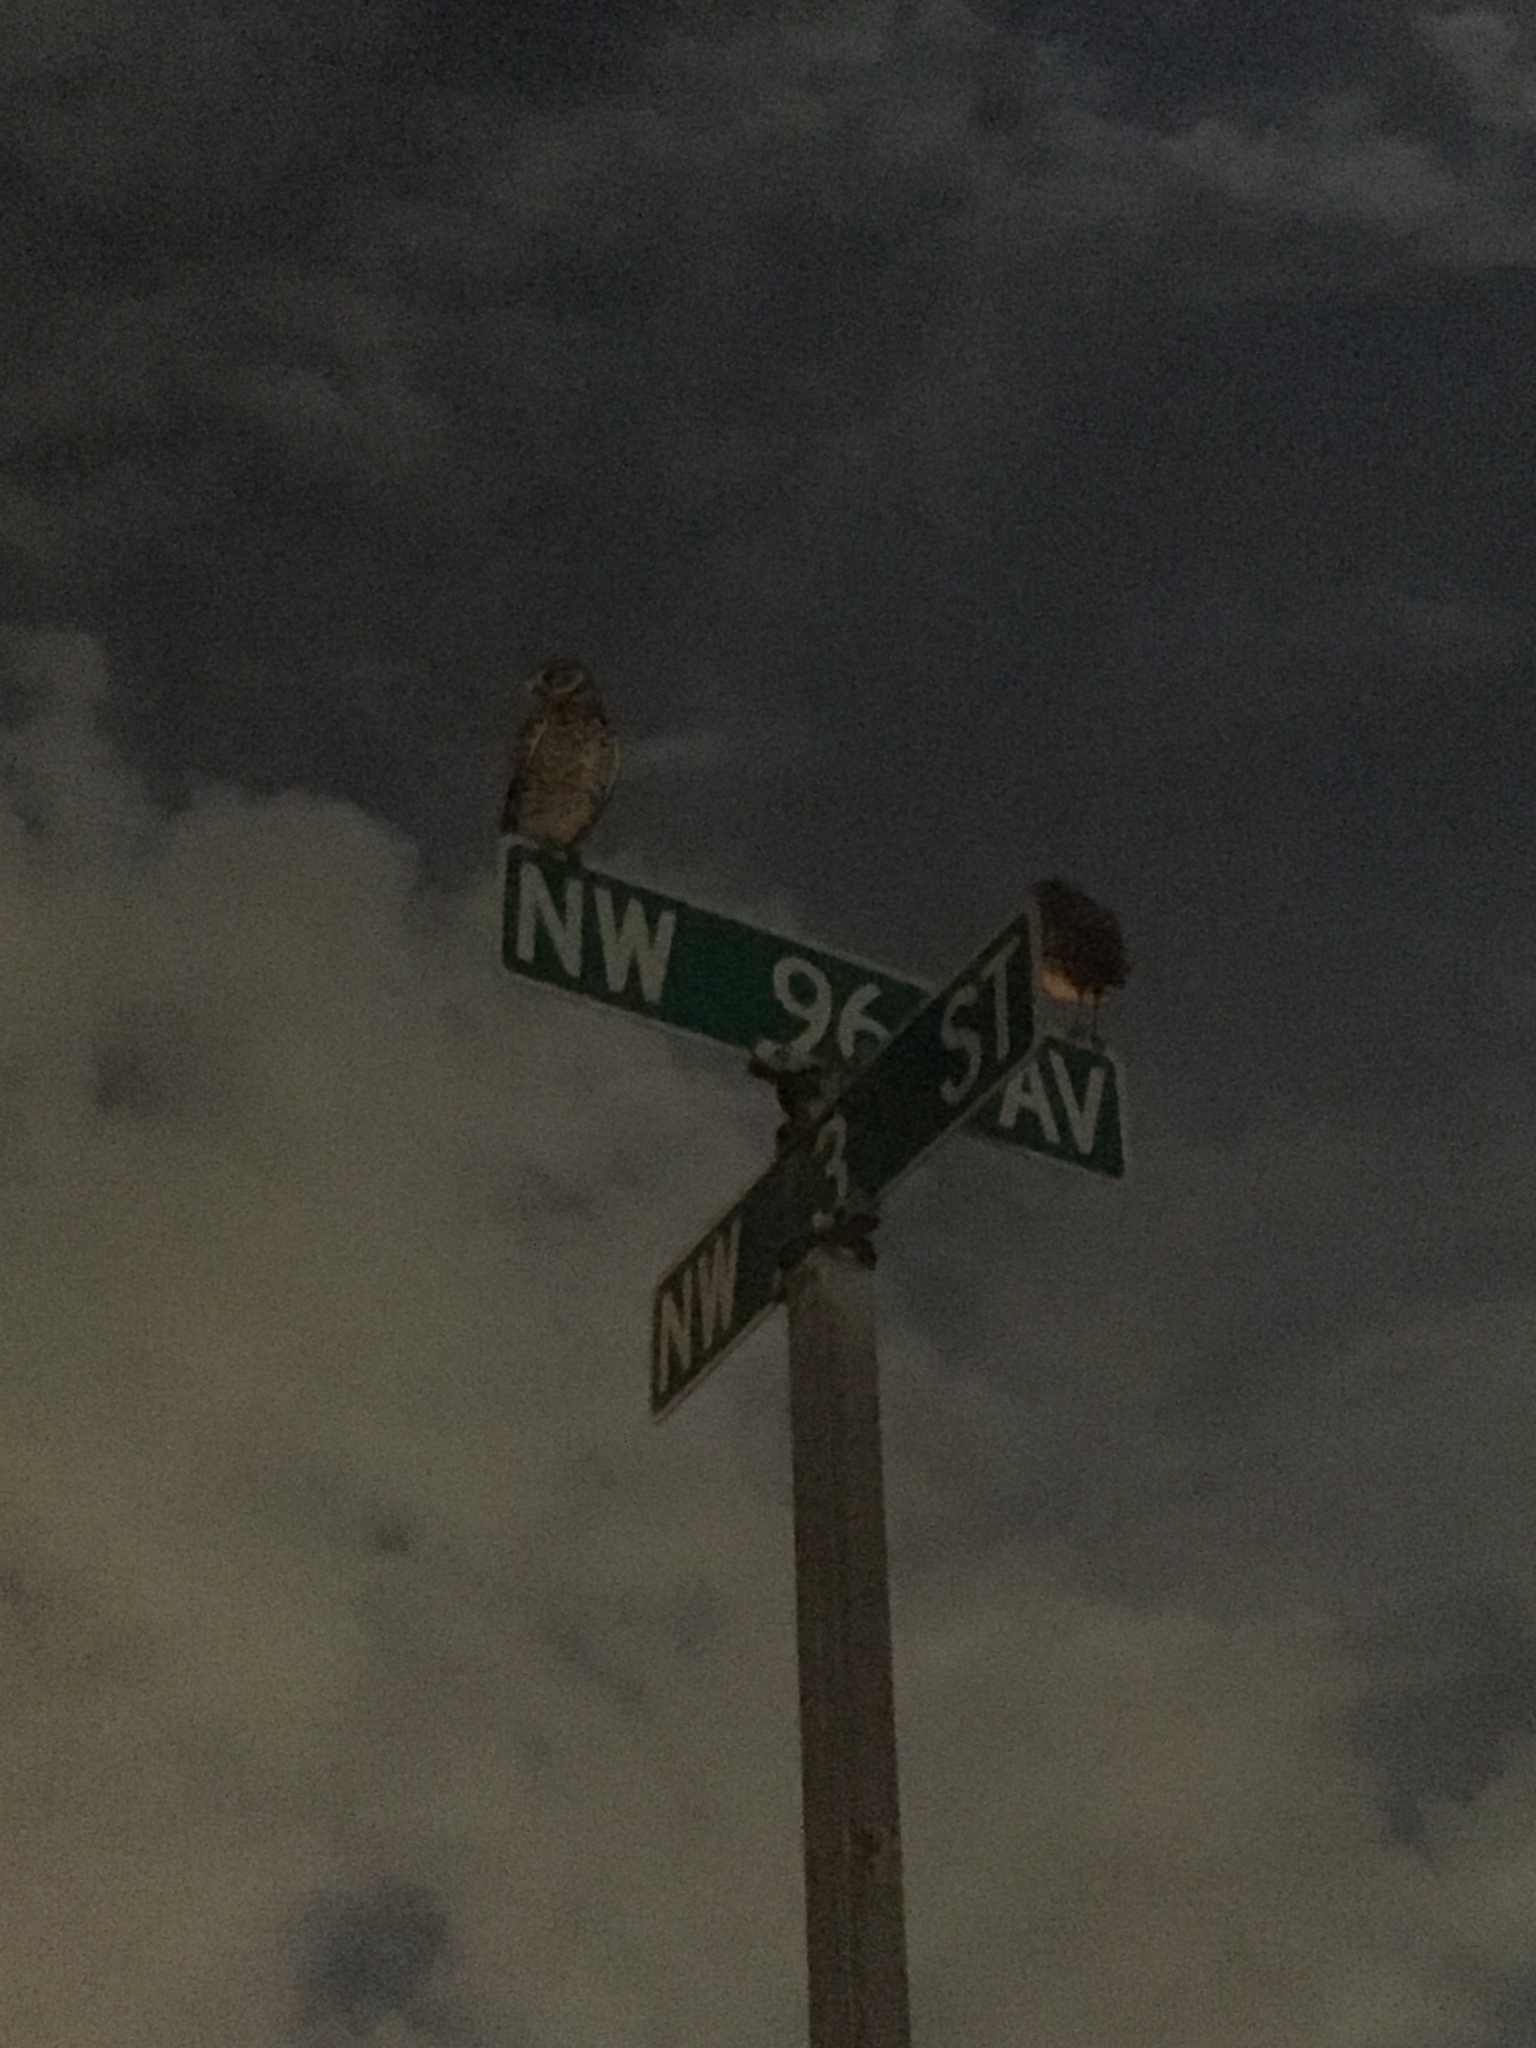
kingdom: Animalia
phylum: Chordata
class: Aves
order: Strigiformes
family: Strigidae
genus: Athene
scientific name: Athene cunicularia
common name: Burrowing owl
